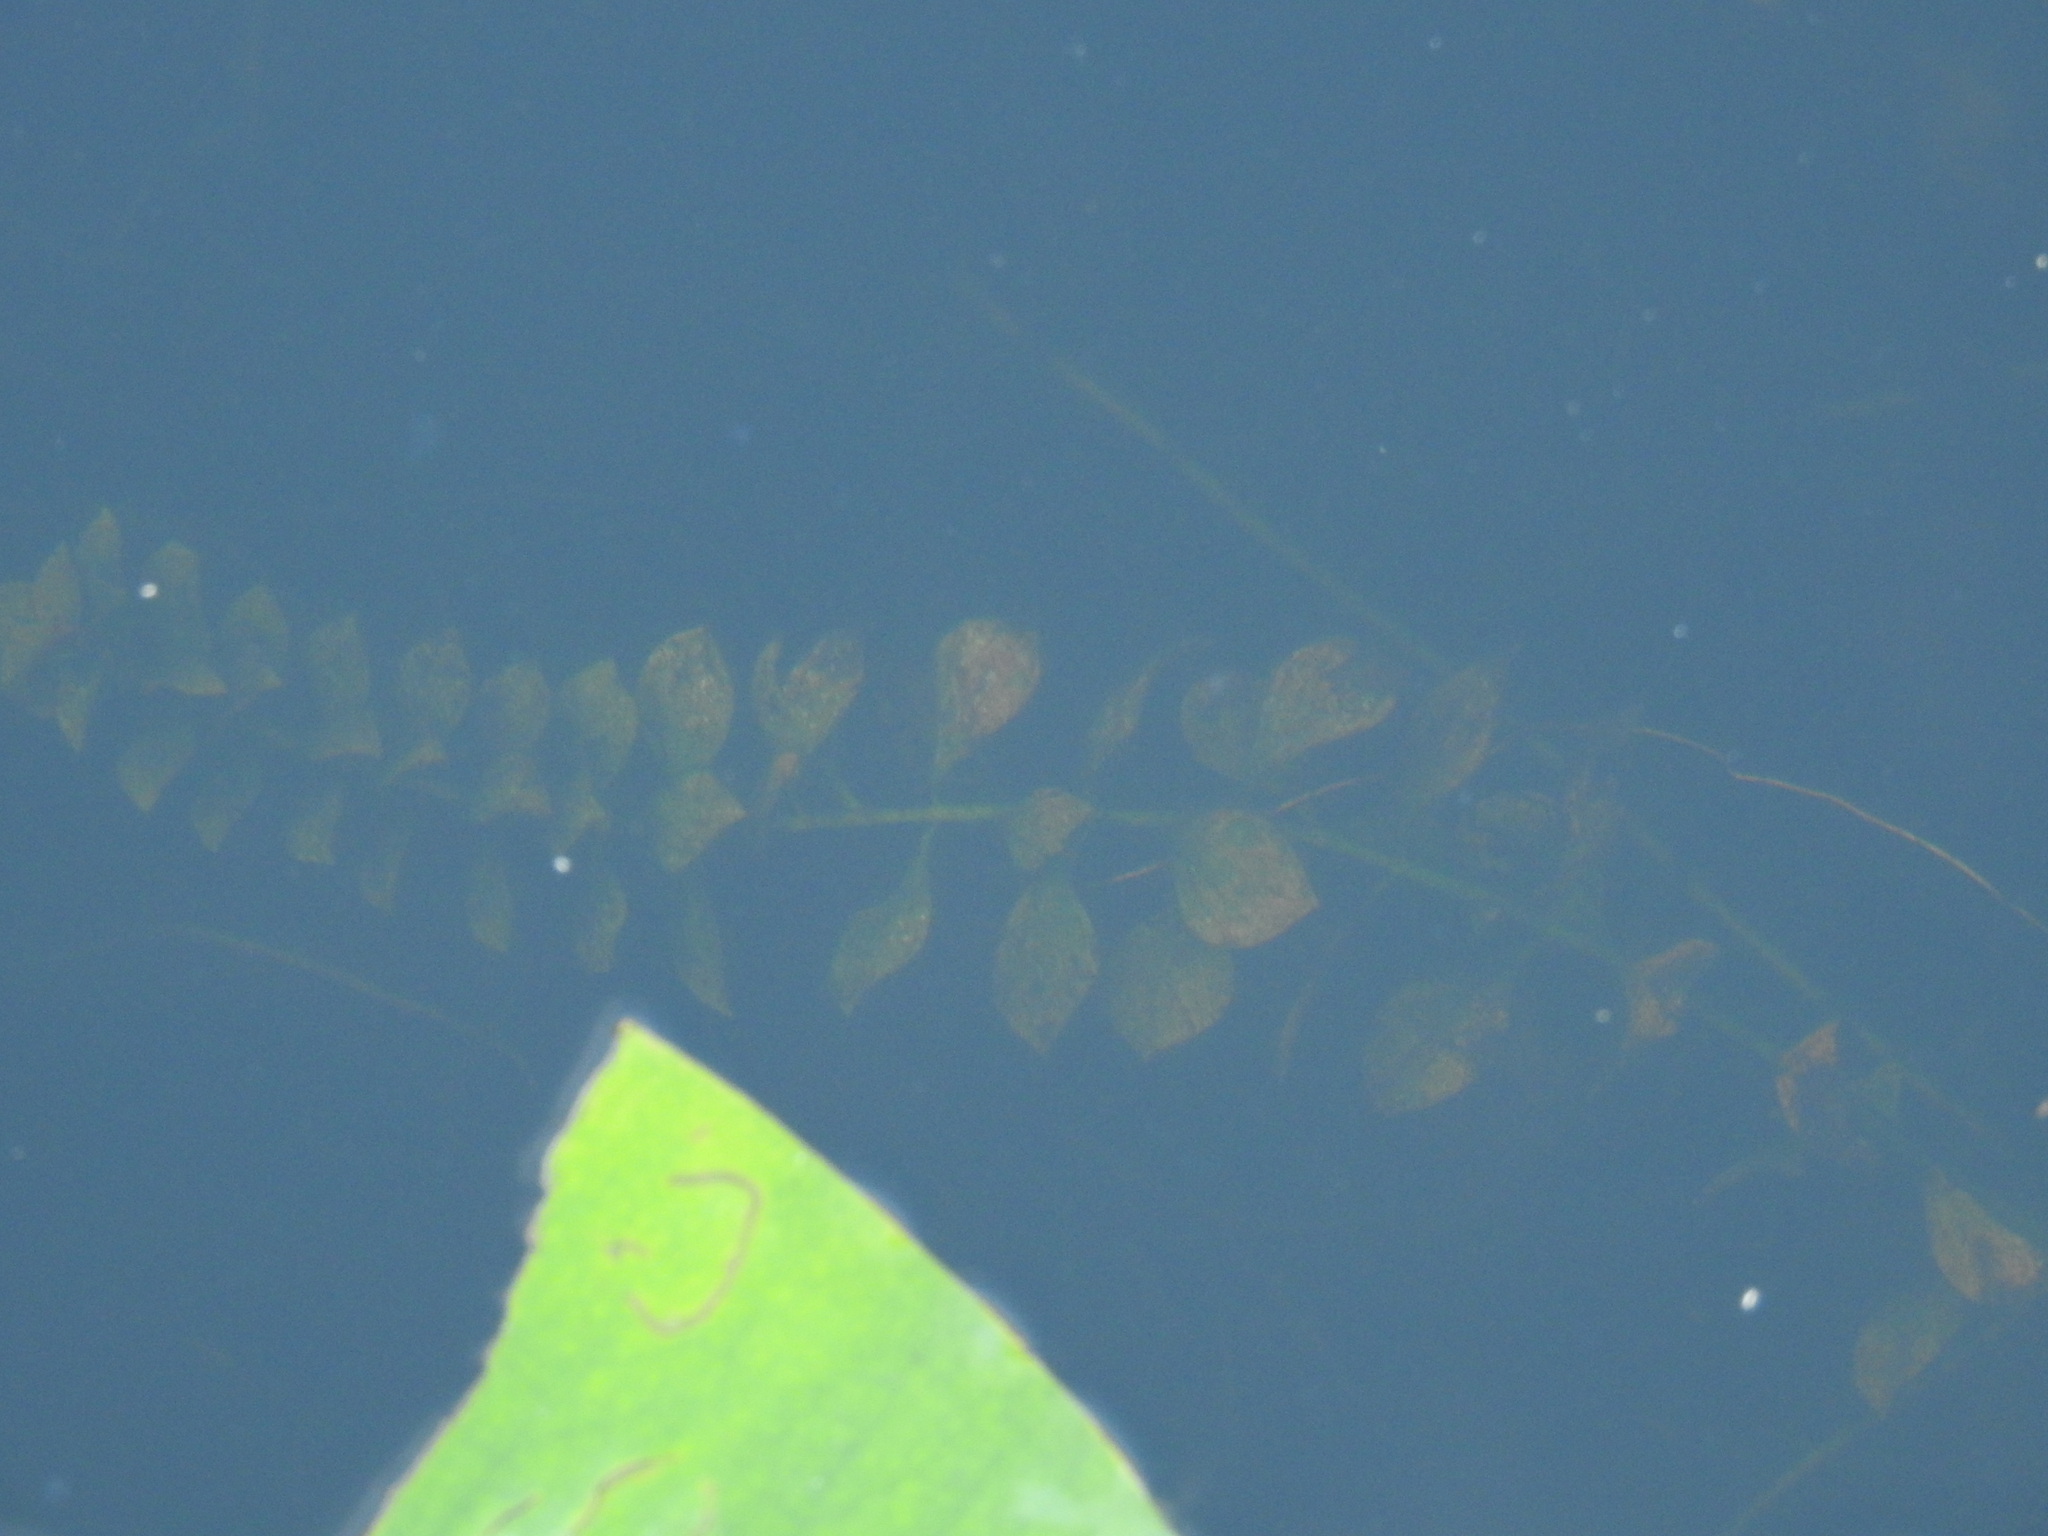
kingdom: Plantae
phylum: Tracheophyta
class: Magnoliopsida
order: Myrtales
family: Onagraceae
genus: Ludwigia
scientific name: Ludwigia repens
